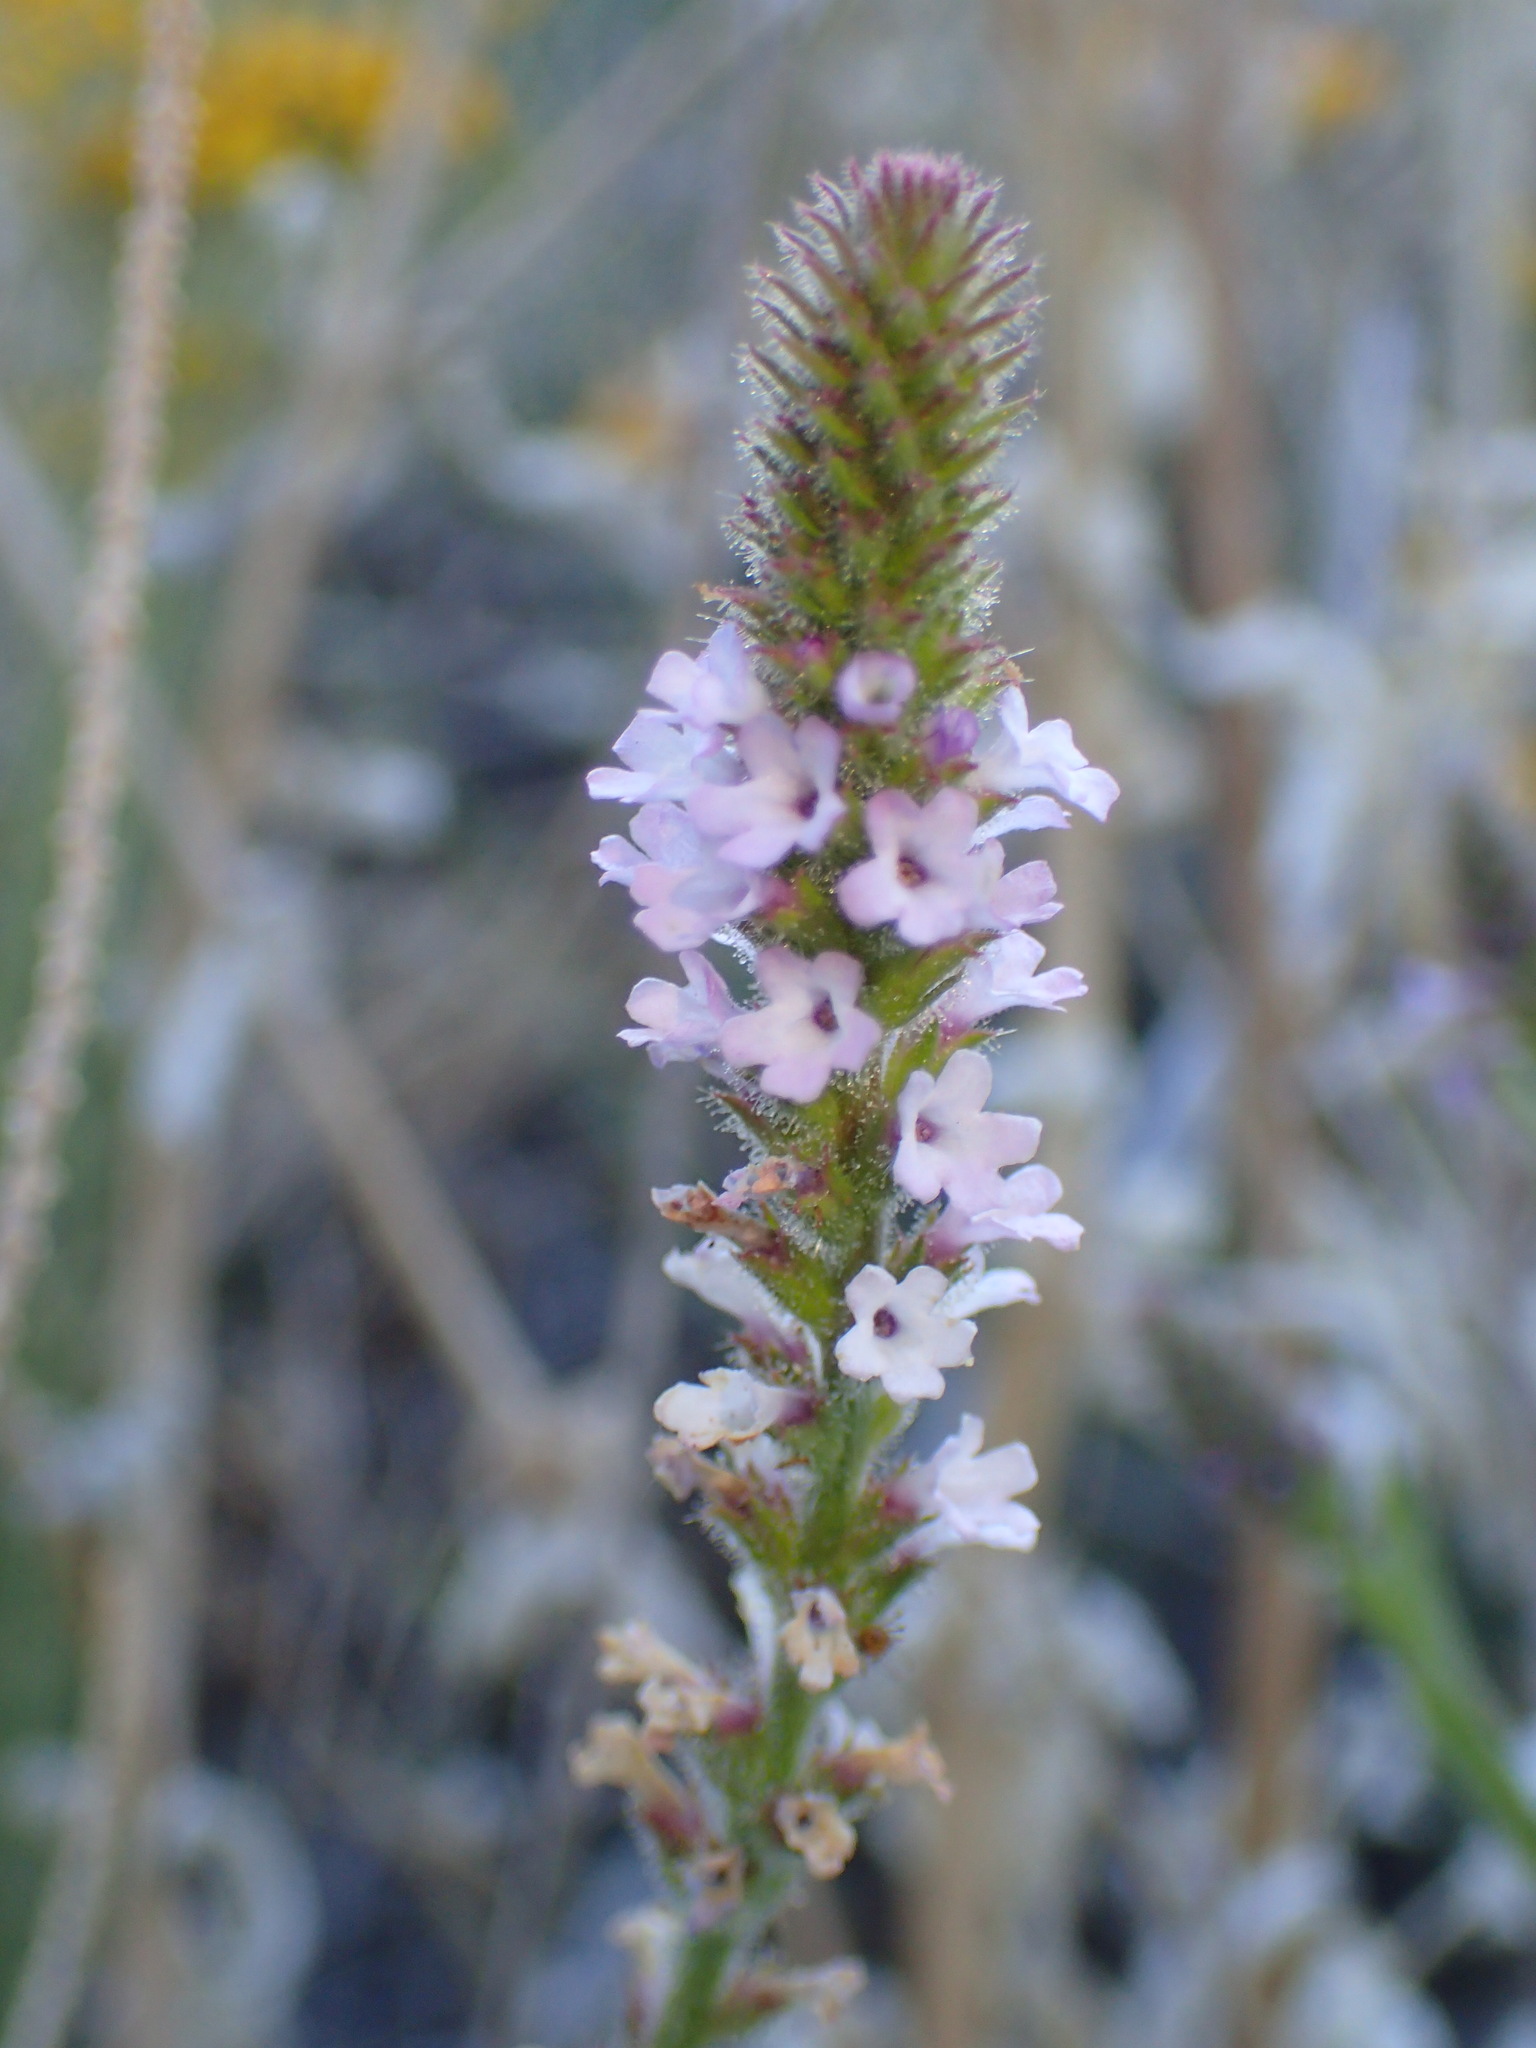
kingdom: Plantae
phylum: Tracheophyta
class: Magnoliopsida
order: Lamiales
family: Verbenaceae
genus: Verbena
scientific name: Verbena lasiostachys
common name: Vervain
